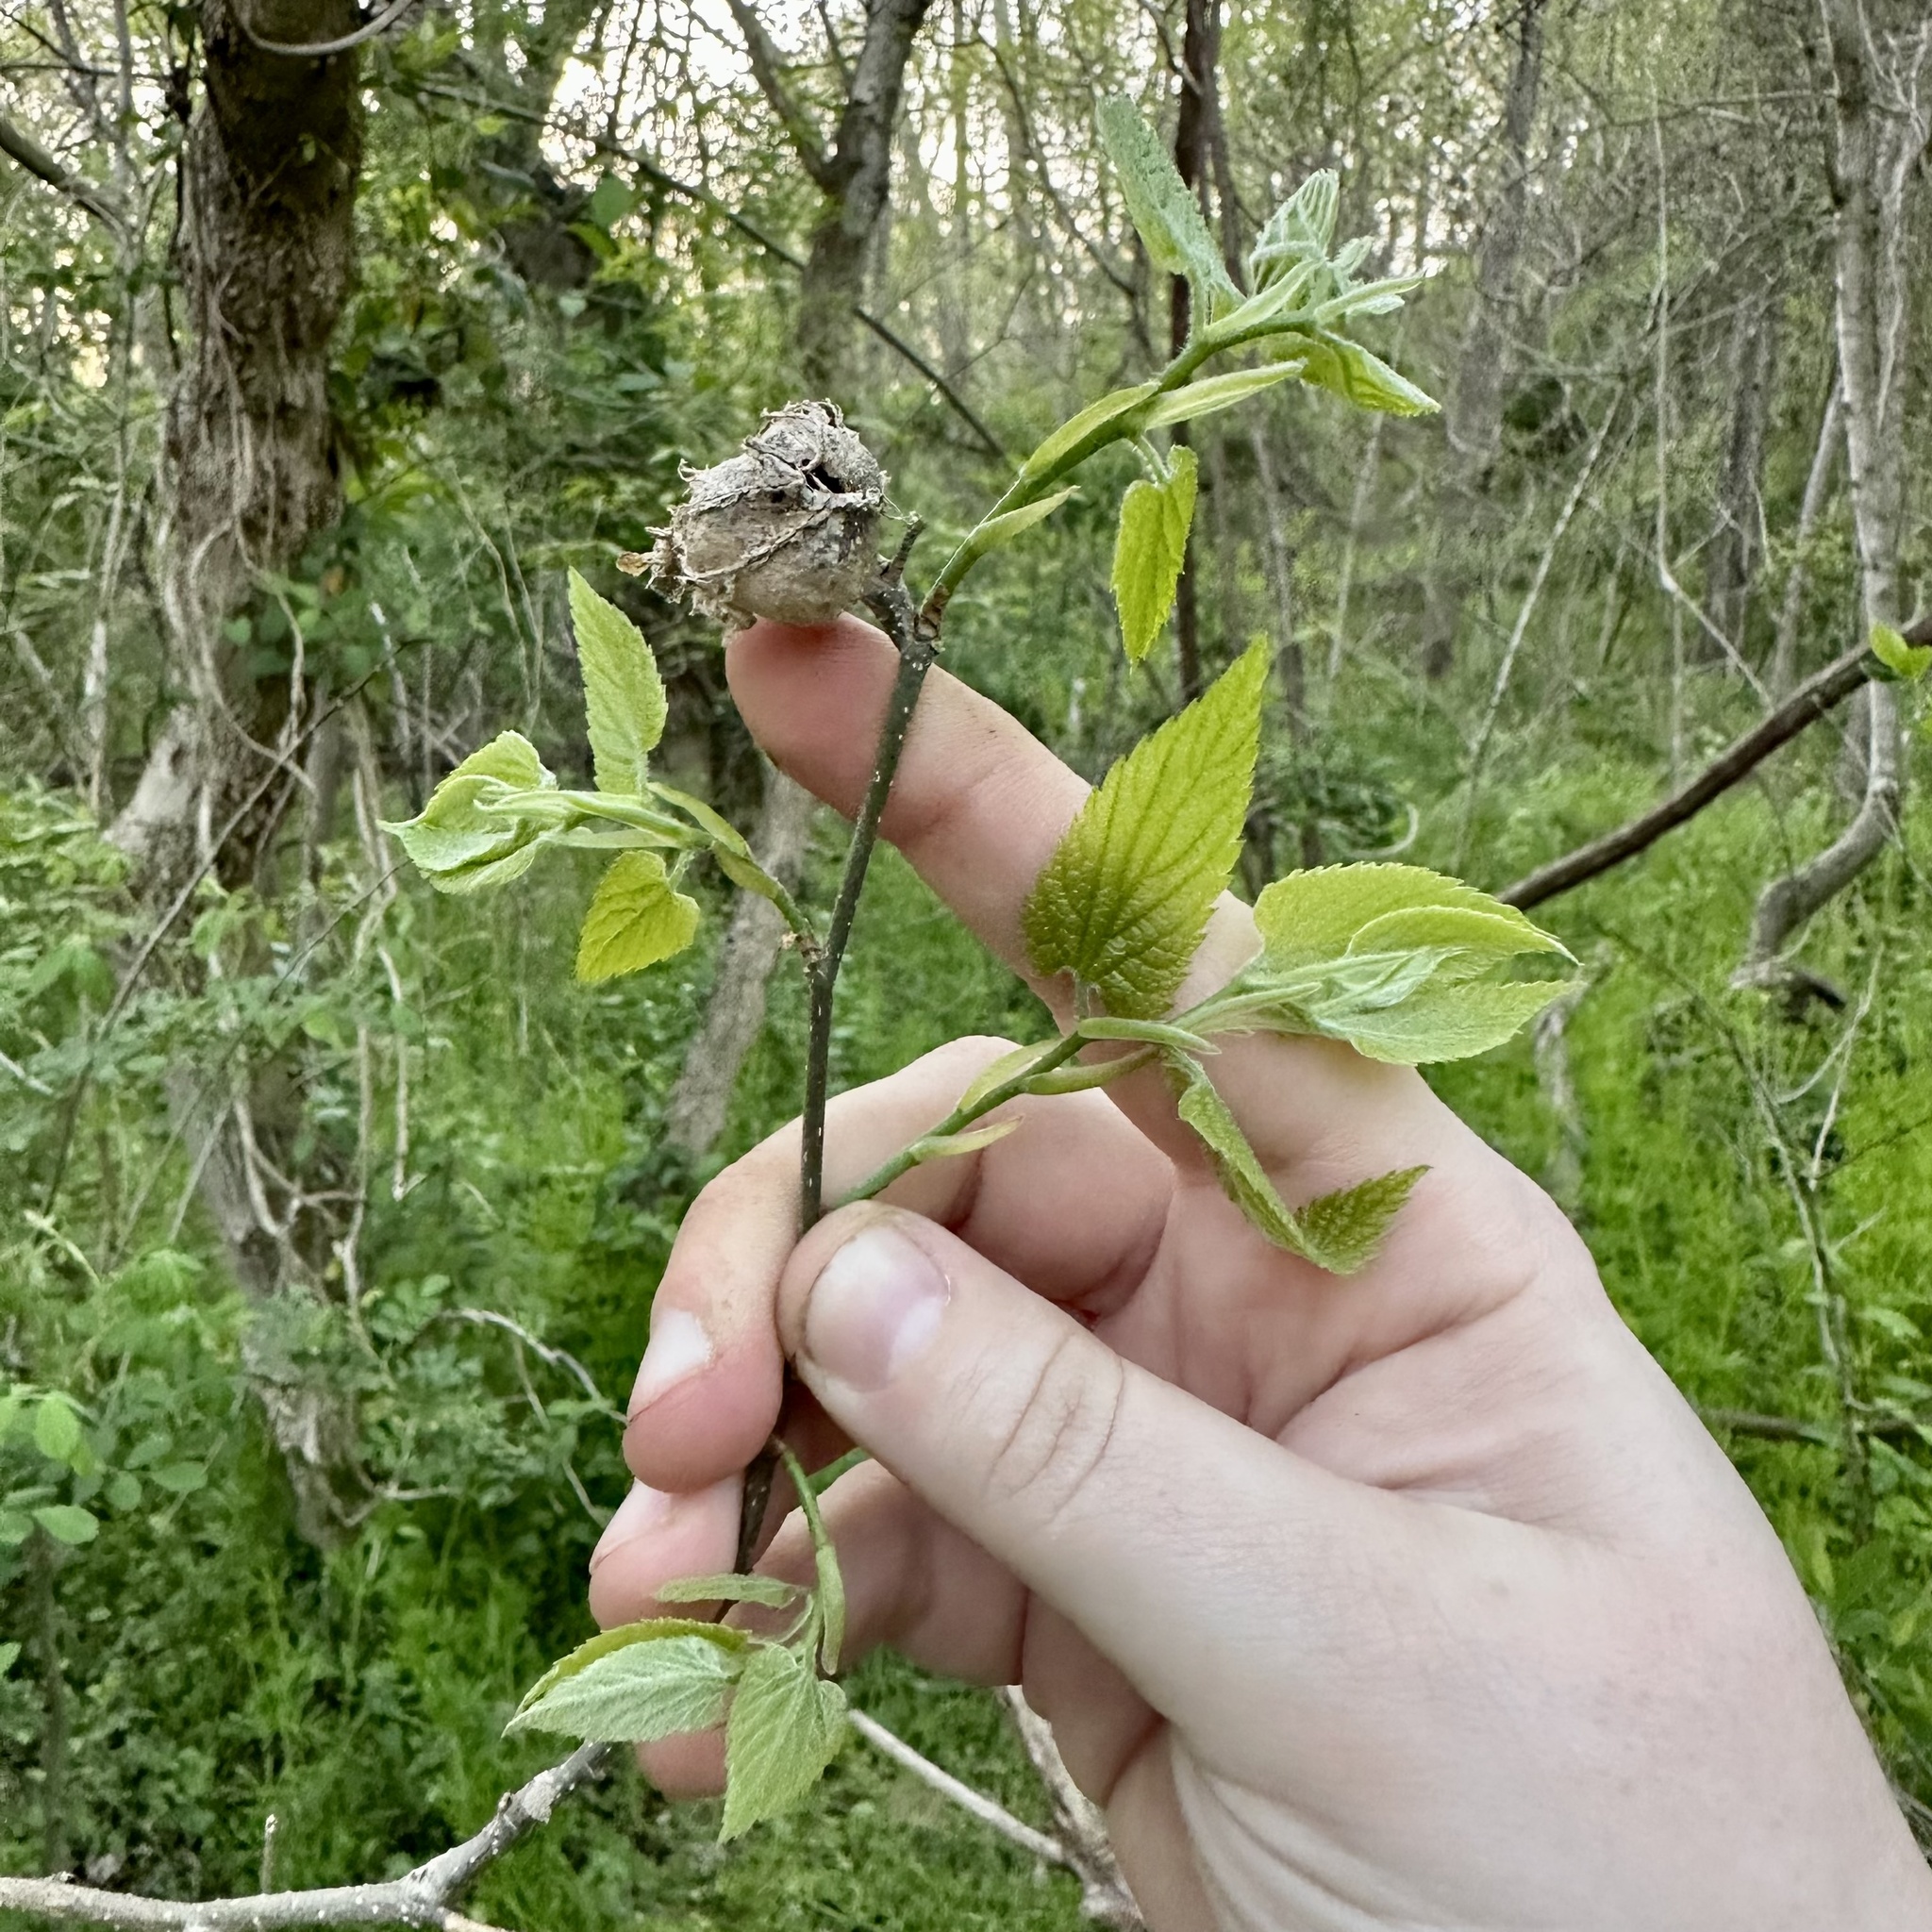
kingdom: Animalia
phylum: Arthropoda
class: Insecta
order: Hemiptera
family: Aphalaridae
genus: Pachypsylla
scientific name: Pachypsylla venusta
